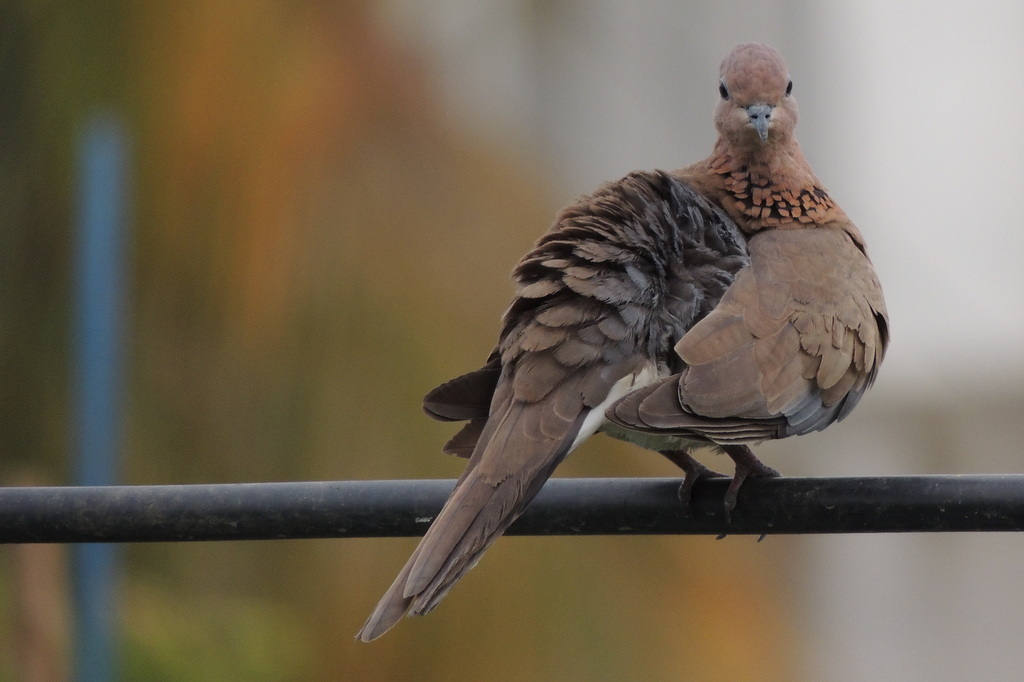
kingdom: Animalia
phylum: Chordata
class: Aves
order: Columbiformes
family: Columbidae
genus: Spilopelia
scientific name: Spilopelia senegalensis
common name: Laughing dove
